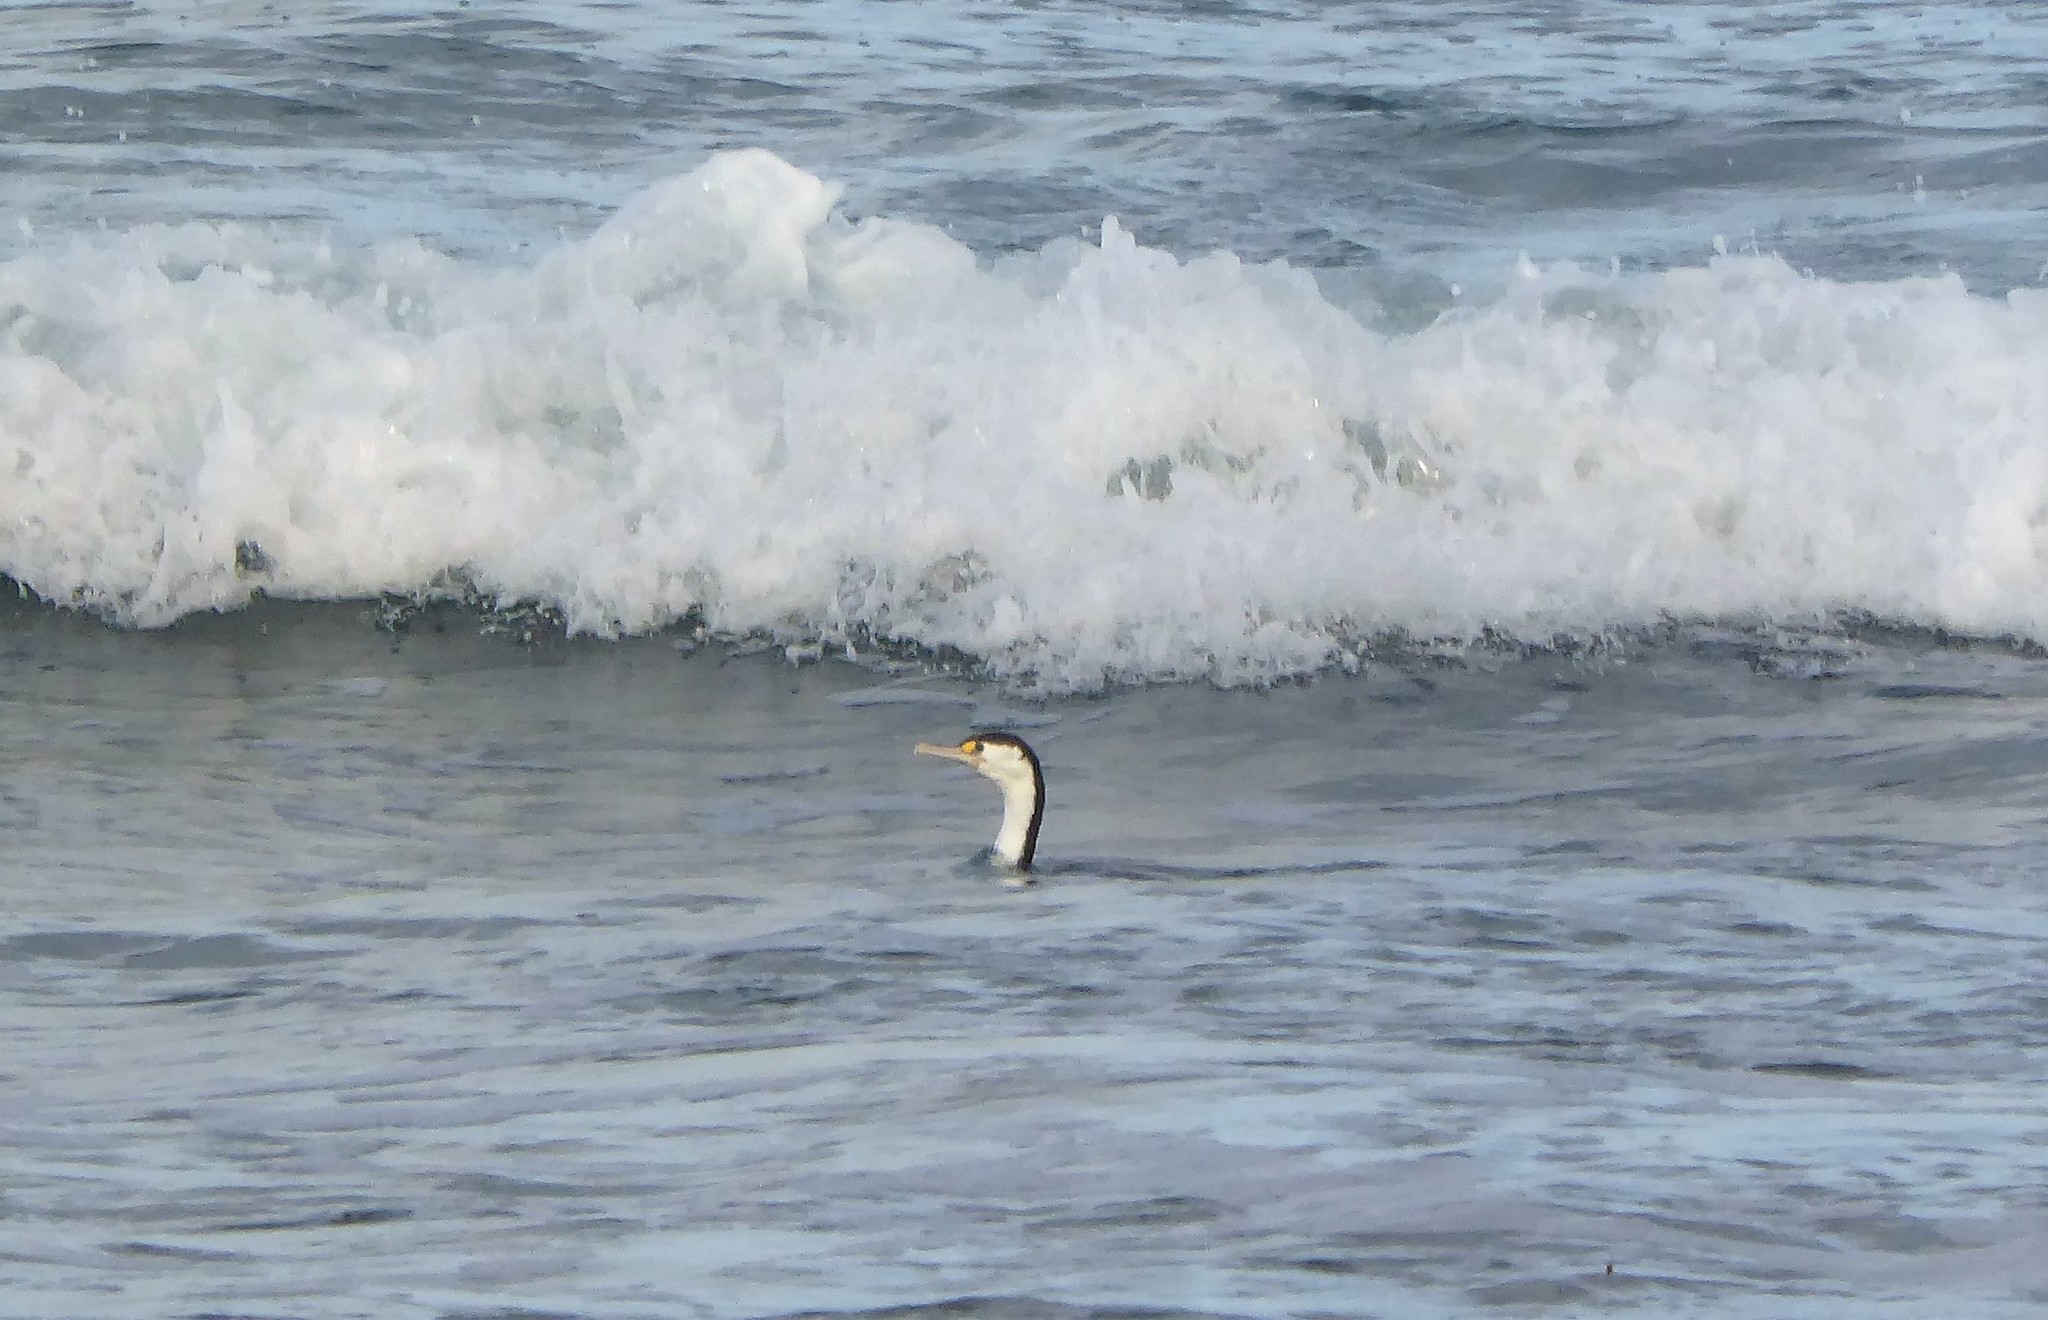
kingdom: Animalia
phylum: Chordata
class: Aves
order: Suliformes
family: Phalacrocoracidae
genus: Phalacrocorax
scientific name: Phalacrocorax varius
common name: Pied cormorant
